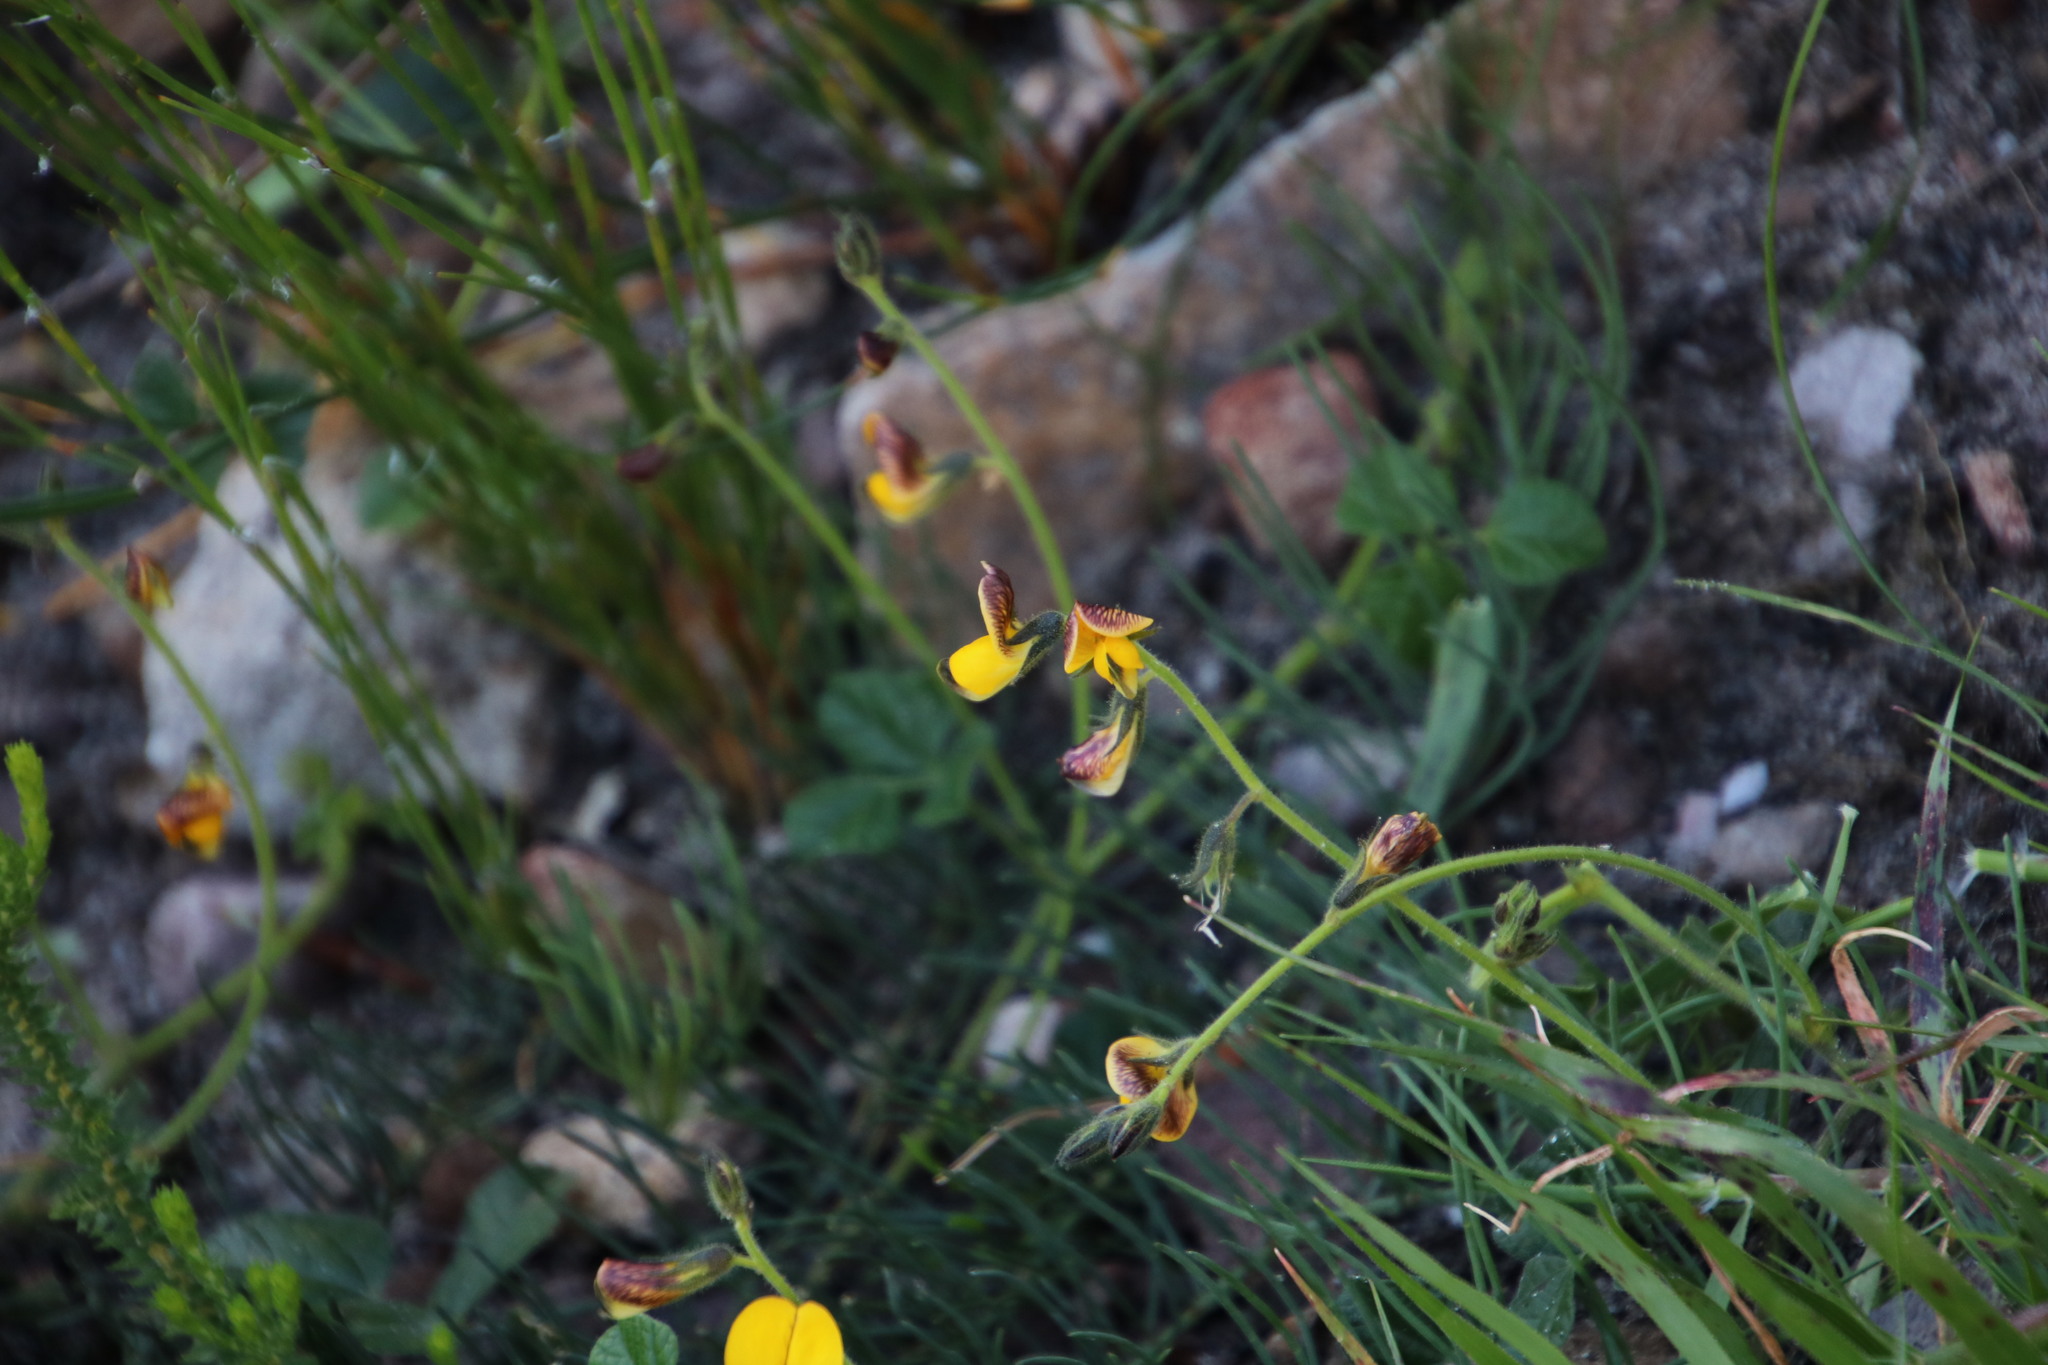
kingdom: Plantae
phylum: Tracheophyta
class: Magnoliopsida
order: Fabales
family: Fabaceae
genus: Bolusafra
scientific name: Bolusafra bituminosa
